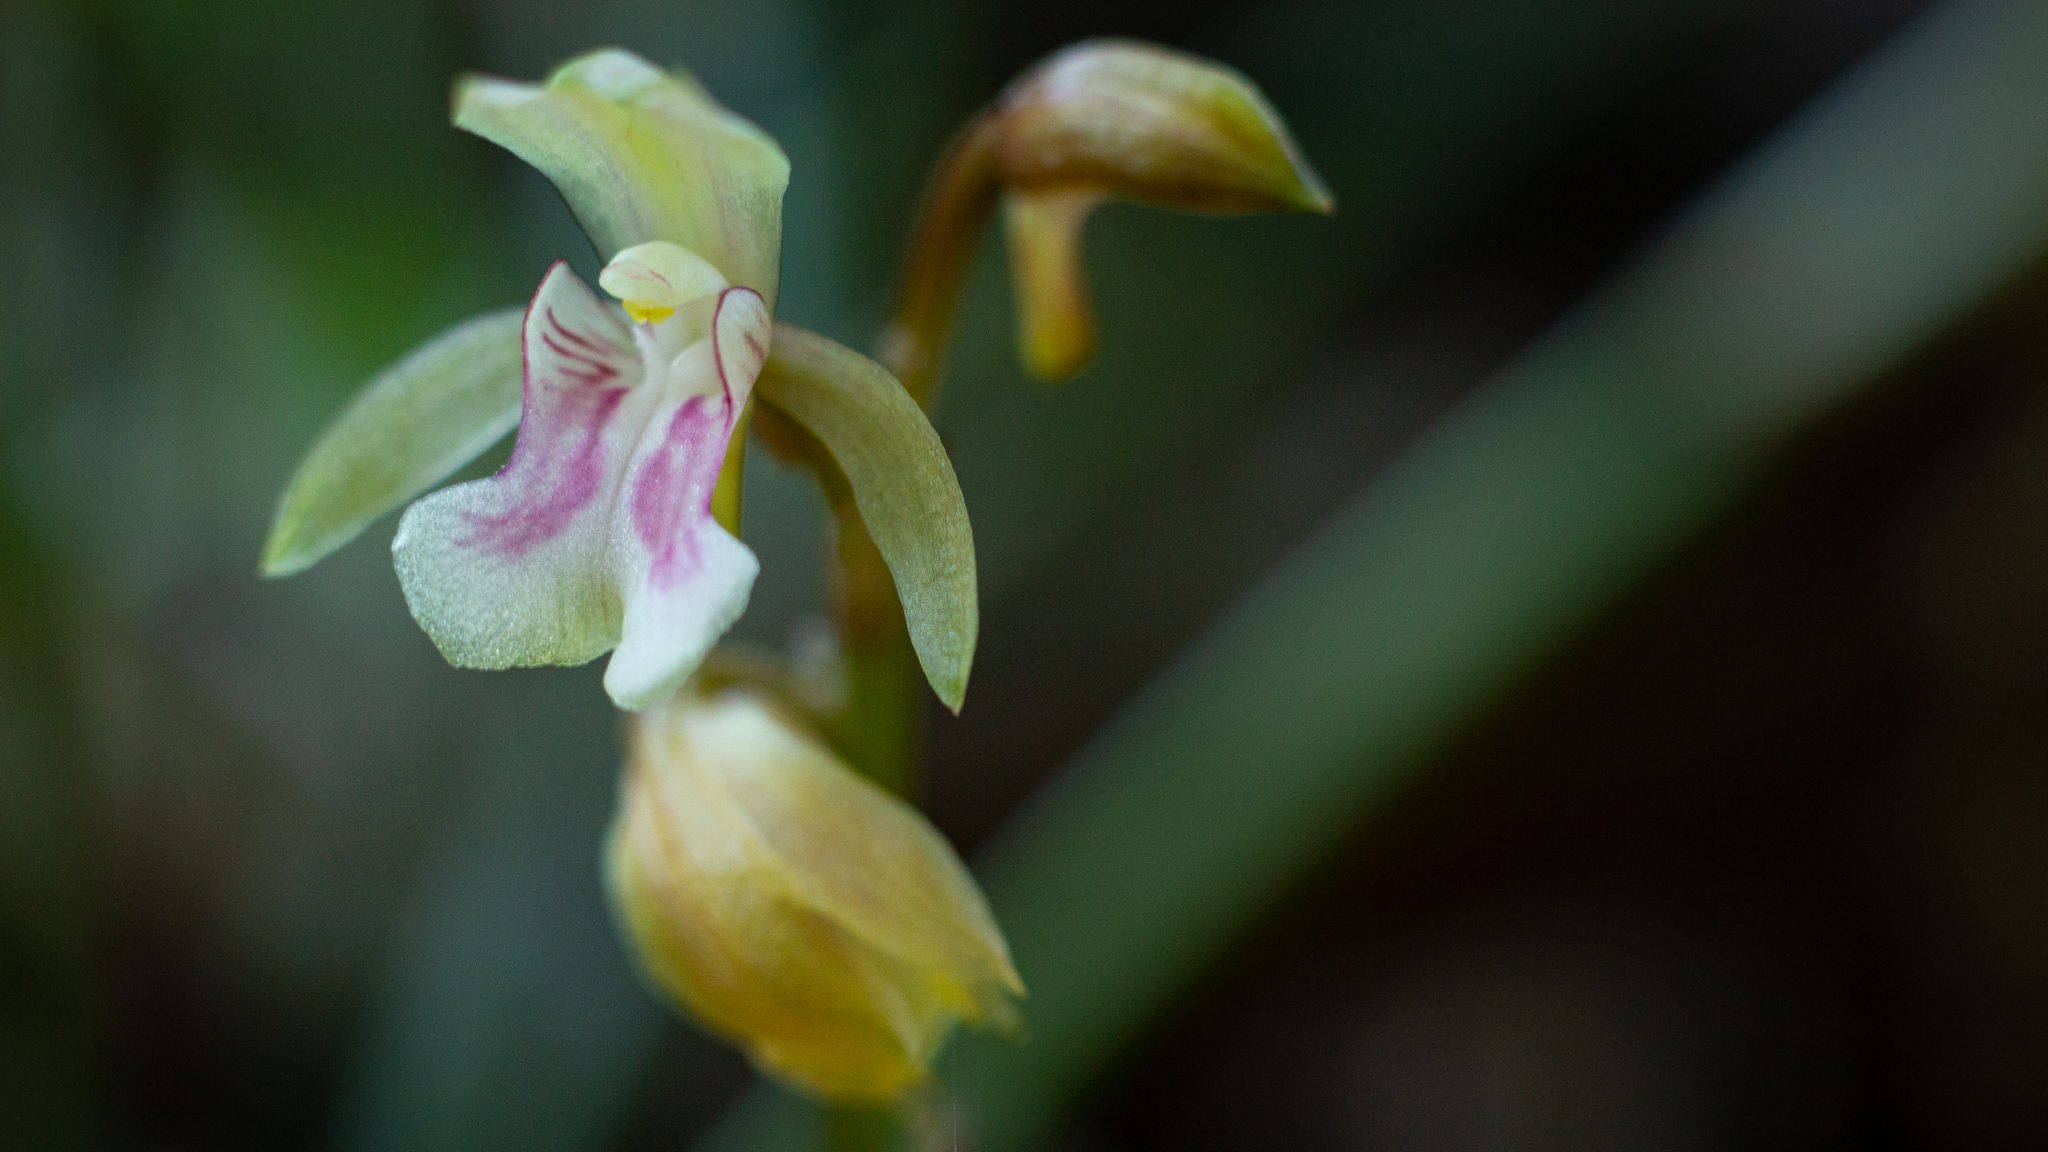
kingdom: Plantae
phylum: Tracheophyta
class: Liliopsida
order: Asparagales
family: Orchidaceae
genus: Eulophia
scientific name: Eulophia maculata
